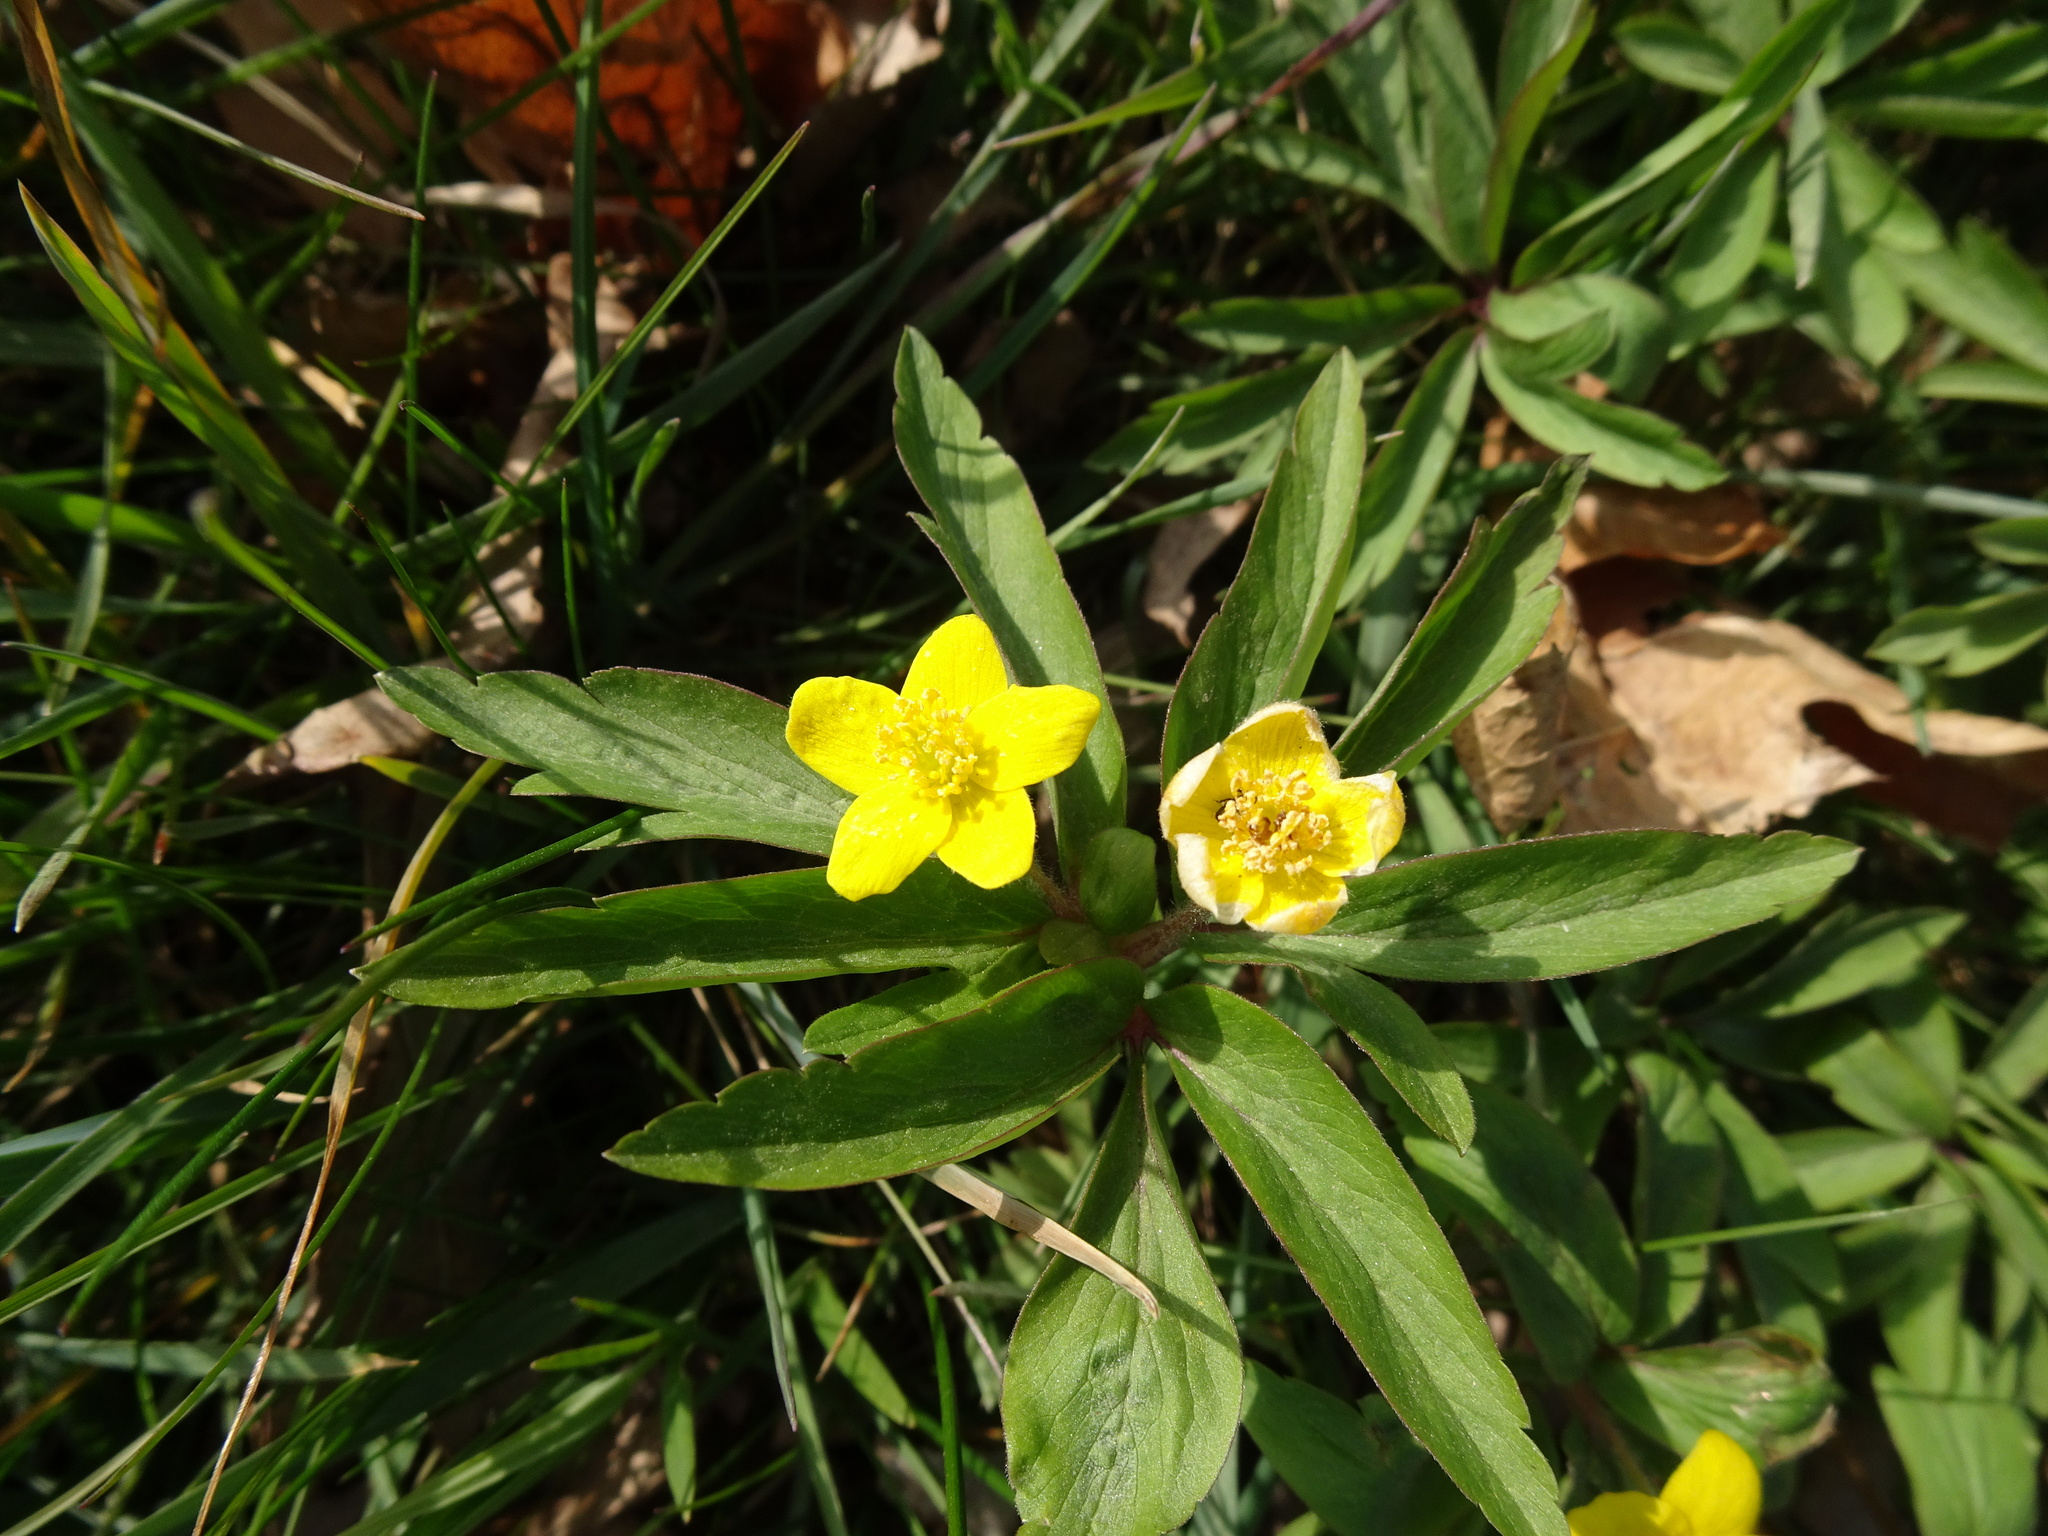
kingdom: Plantae
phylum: Tracheophyta
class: Magnoliopsida
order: Ranunculales
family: Ranunculaceae
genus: Anemone
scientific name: Anemone ranunculoides
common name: Yellow anemone
